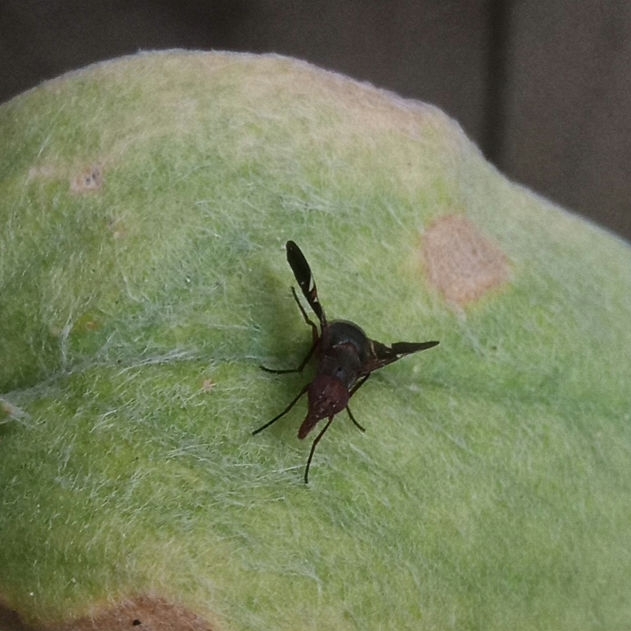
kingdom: Animalia
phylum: Arthropoda
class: Insecta
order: Diptera
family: Ulidiidae
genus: Delphinia
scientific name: Delphinia picta
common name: Common picture-winged fly
